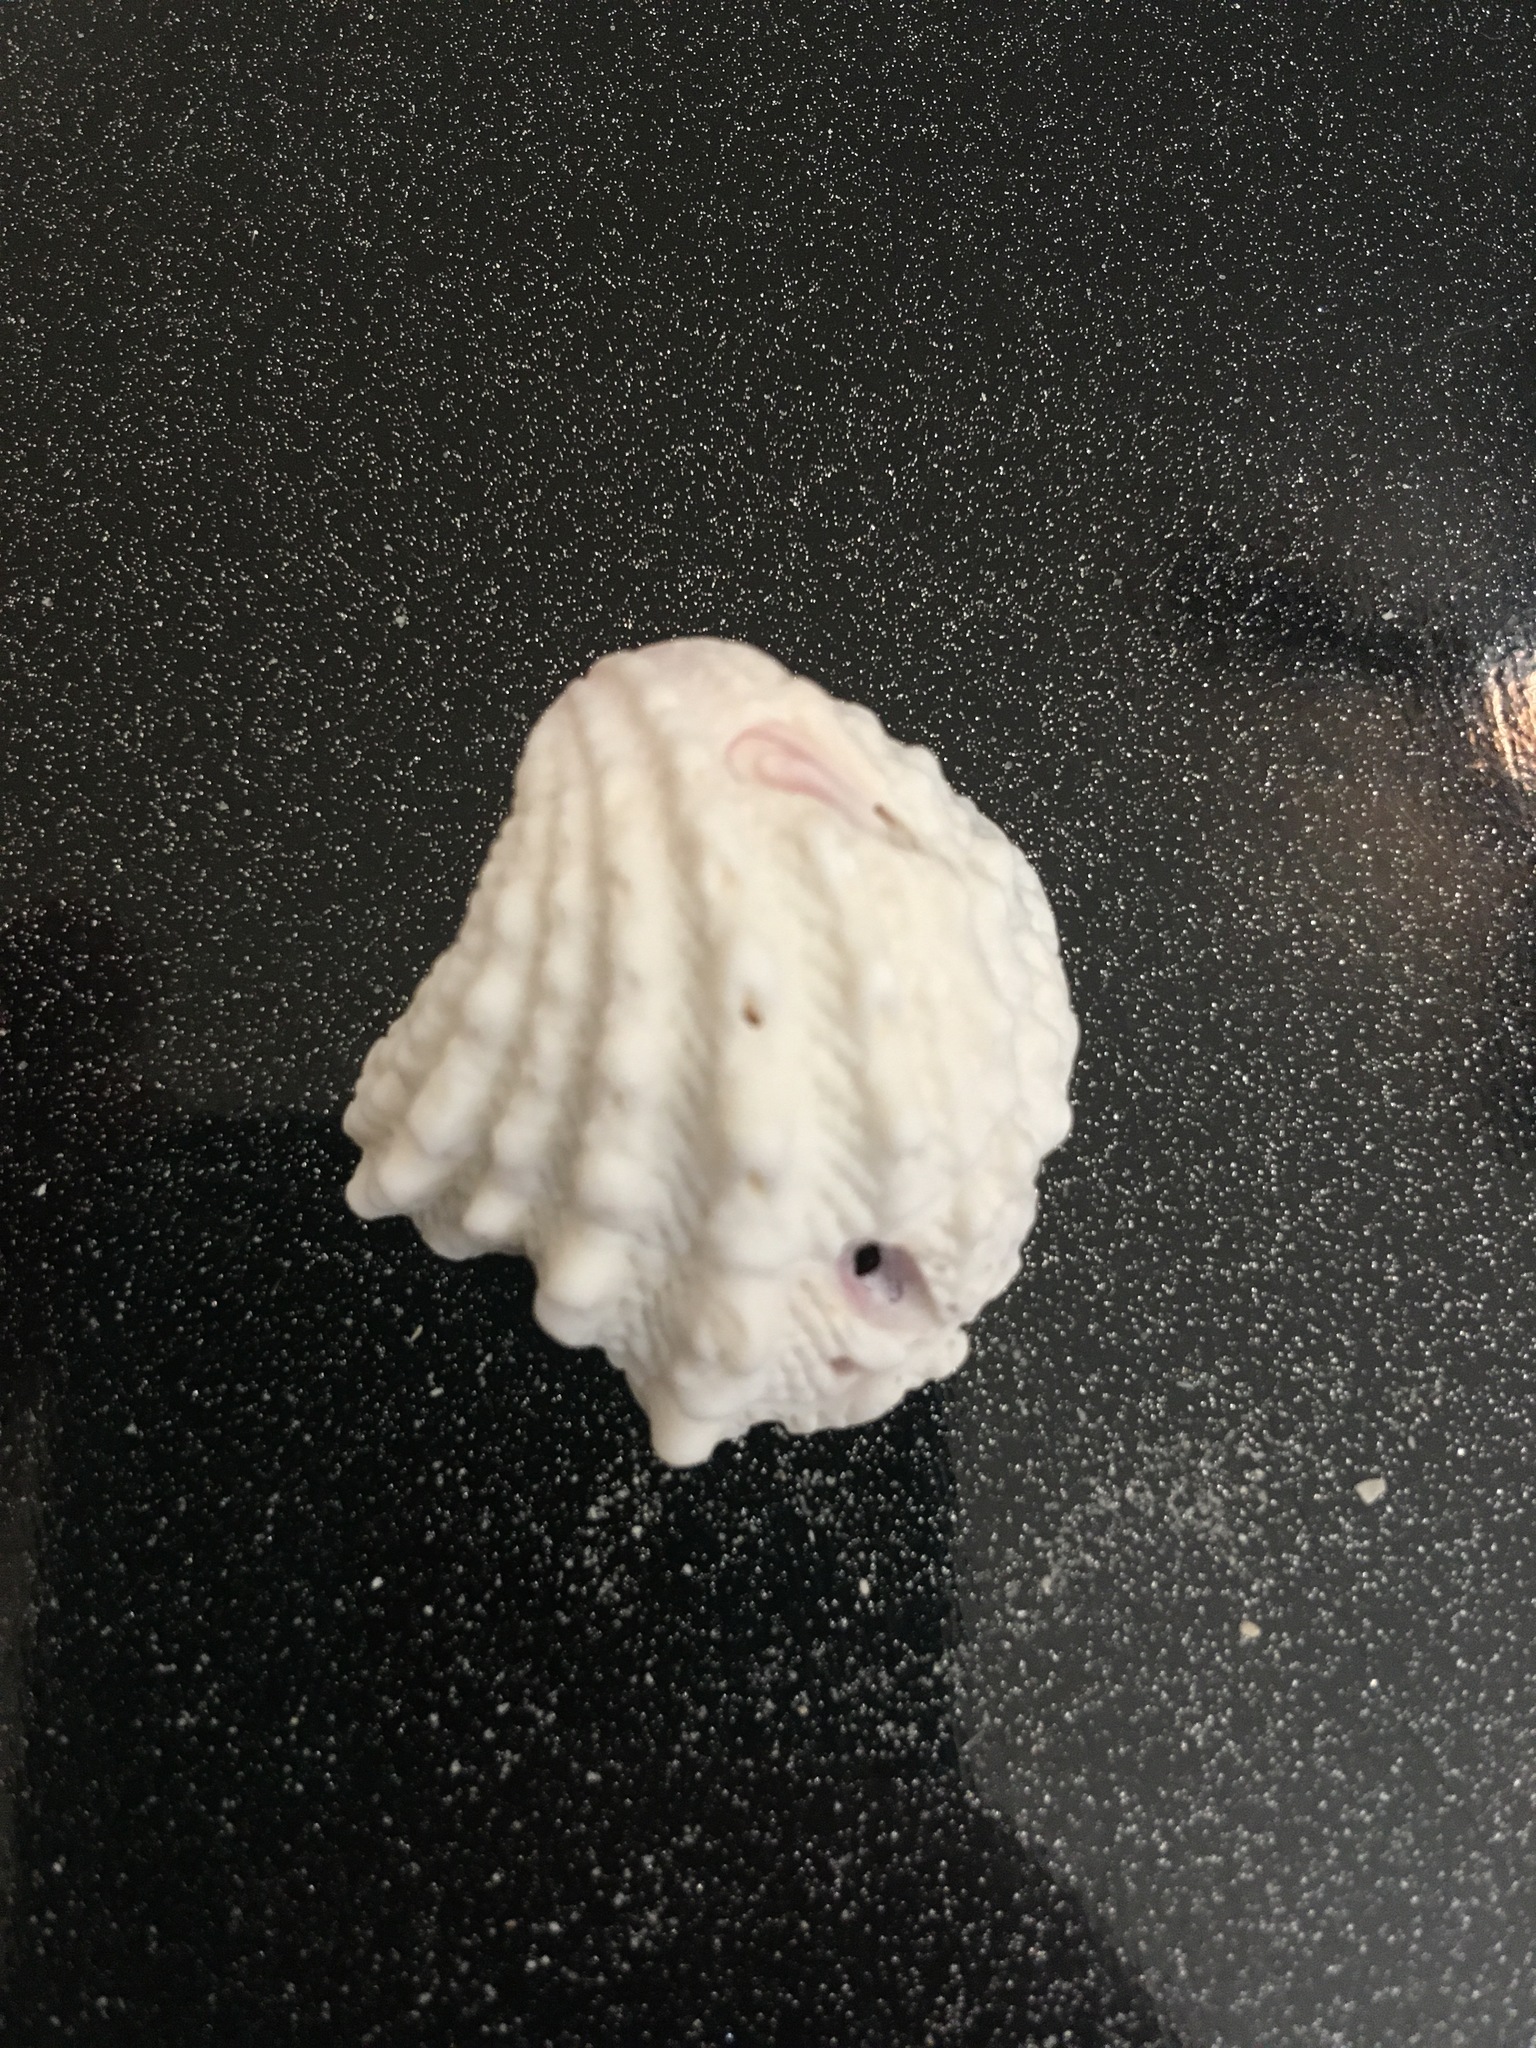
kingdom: Animalia
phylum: Mollusca
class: Bivalvia
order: Venerida
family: Chamidae
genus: Arcinella
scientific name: Arcinella cornuta
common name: Florida spiny jewel box
